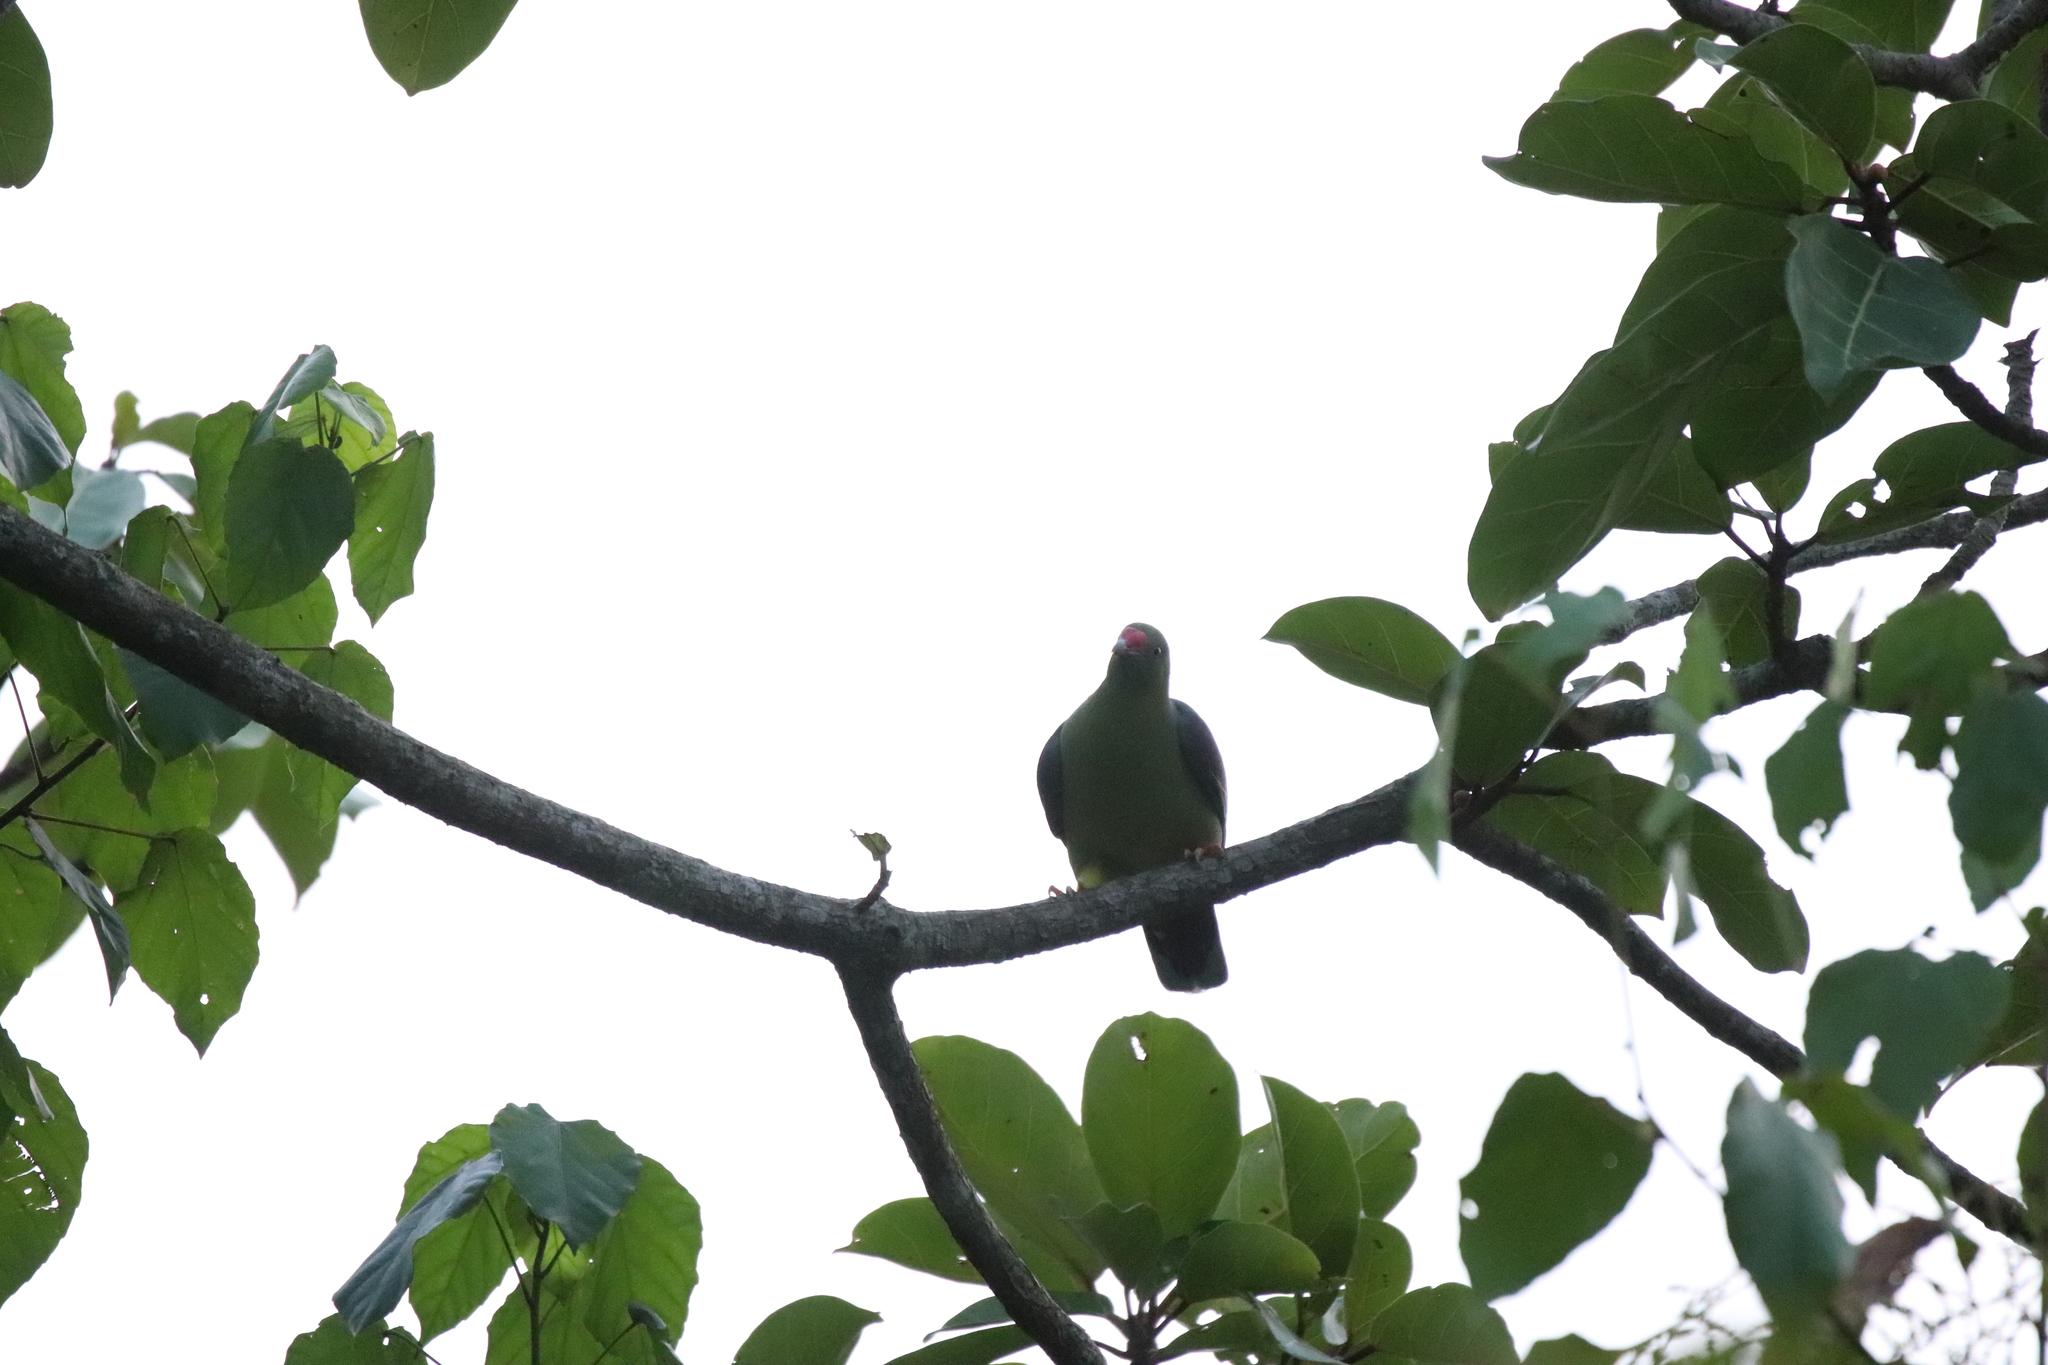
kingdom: Animalia
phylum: Chordata
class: Aves
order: Columbiformes
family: Columbidae
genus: Treron
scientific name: Treron calvus
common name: African green pigeon
